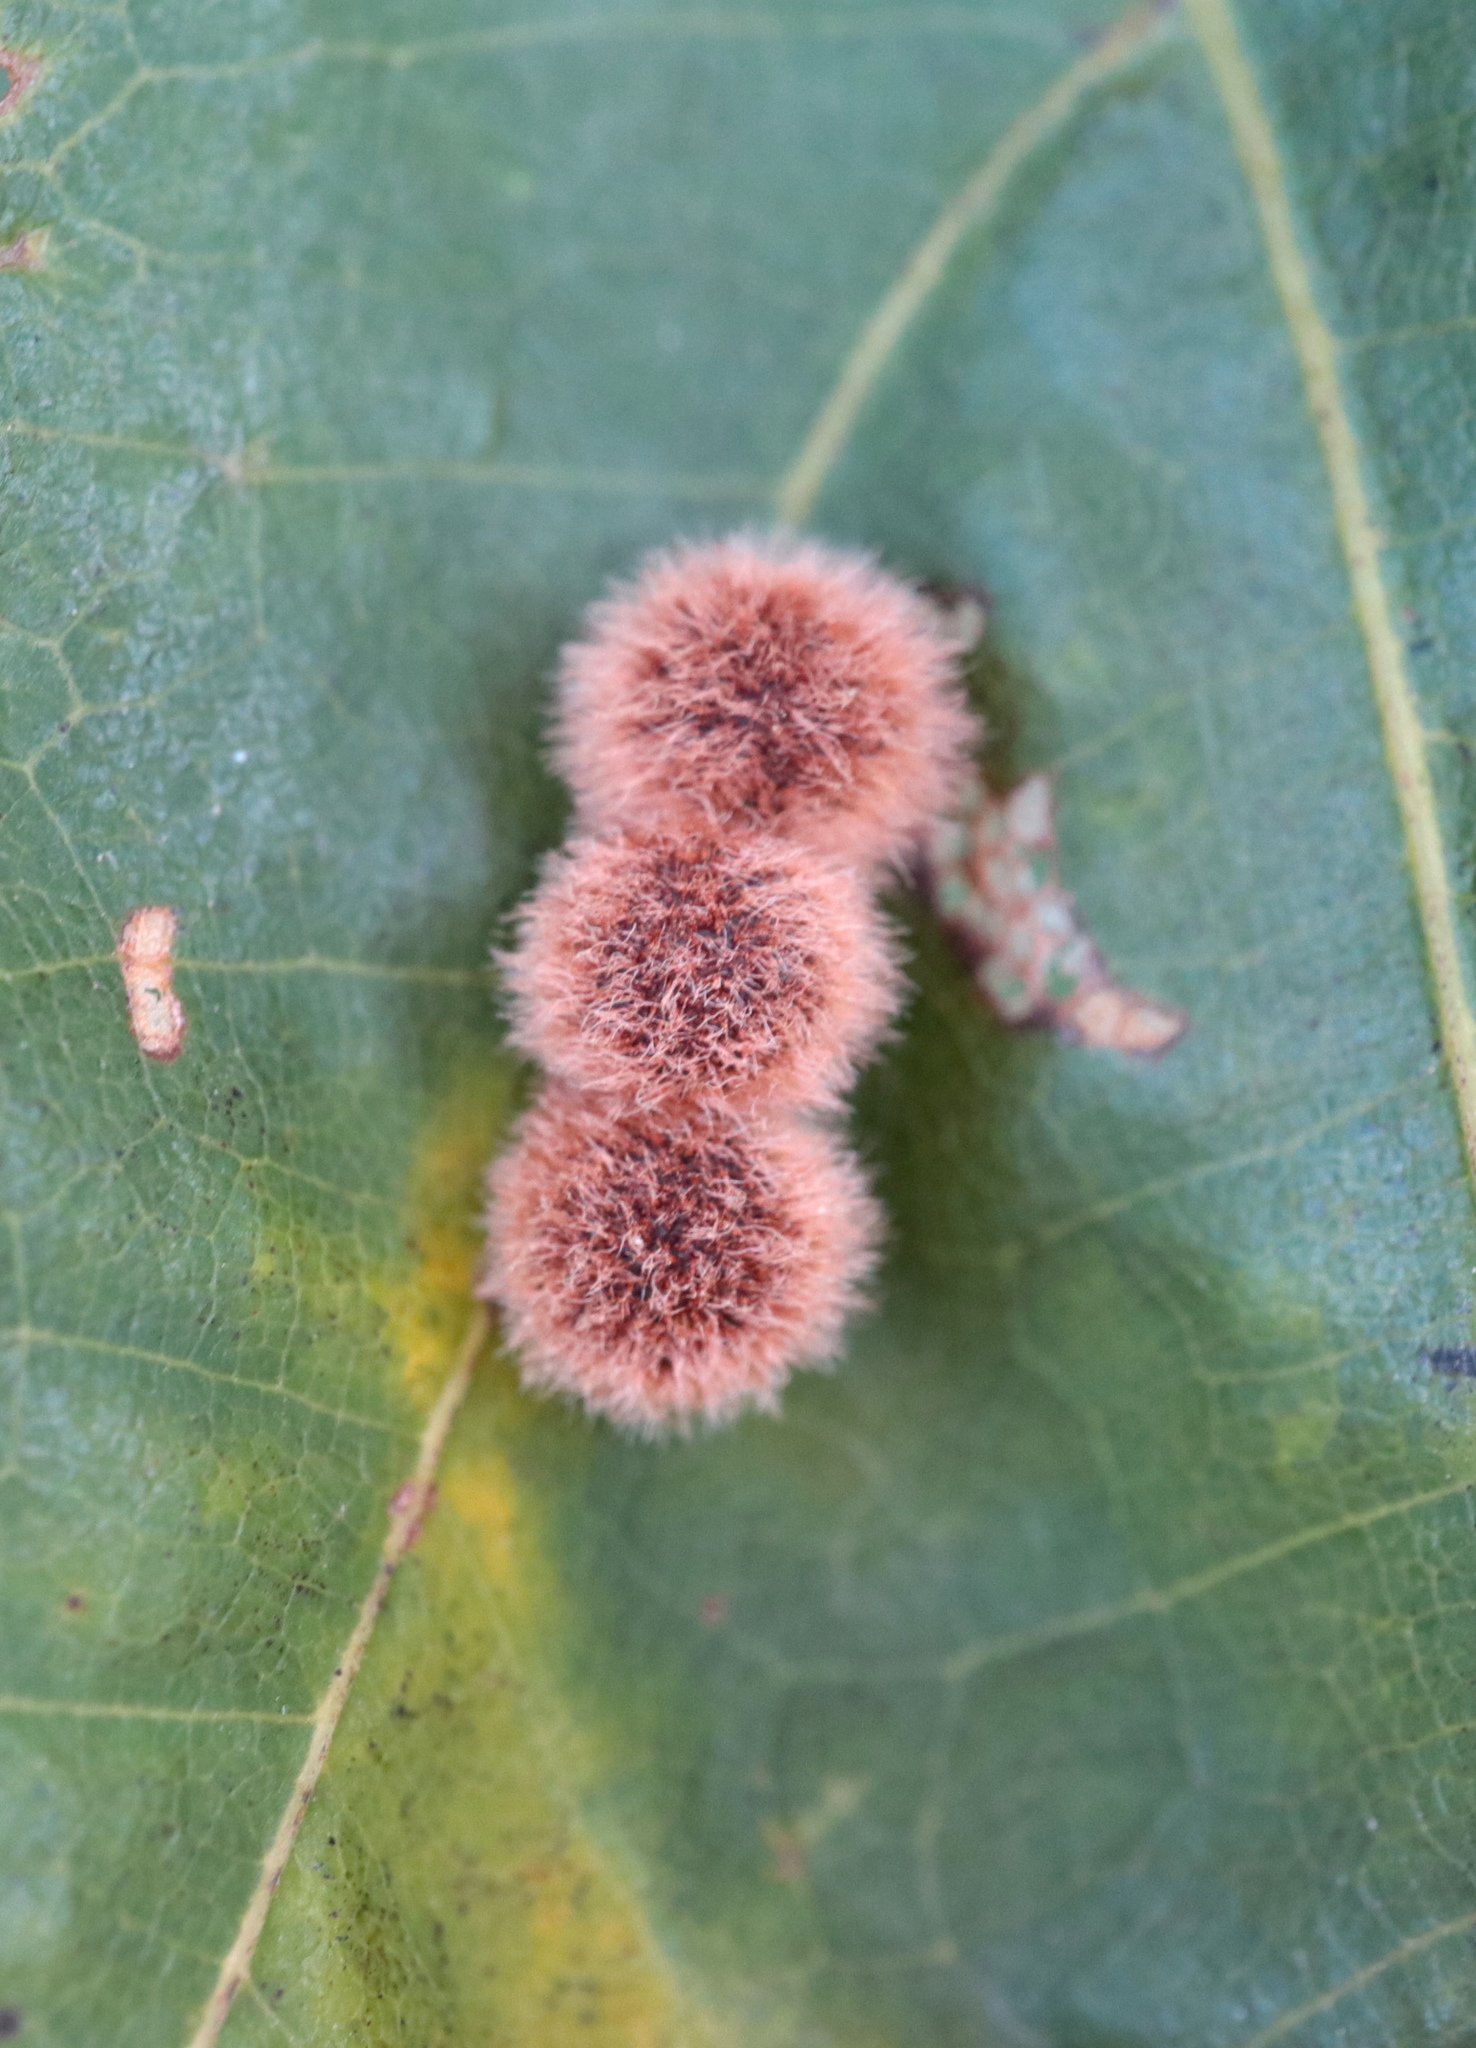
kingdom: Animalia
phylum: Arthropoda
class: Insecta
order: Hymenoptera
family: Cynipidae
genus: Callirhytis
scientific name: Callirhytis
